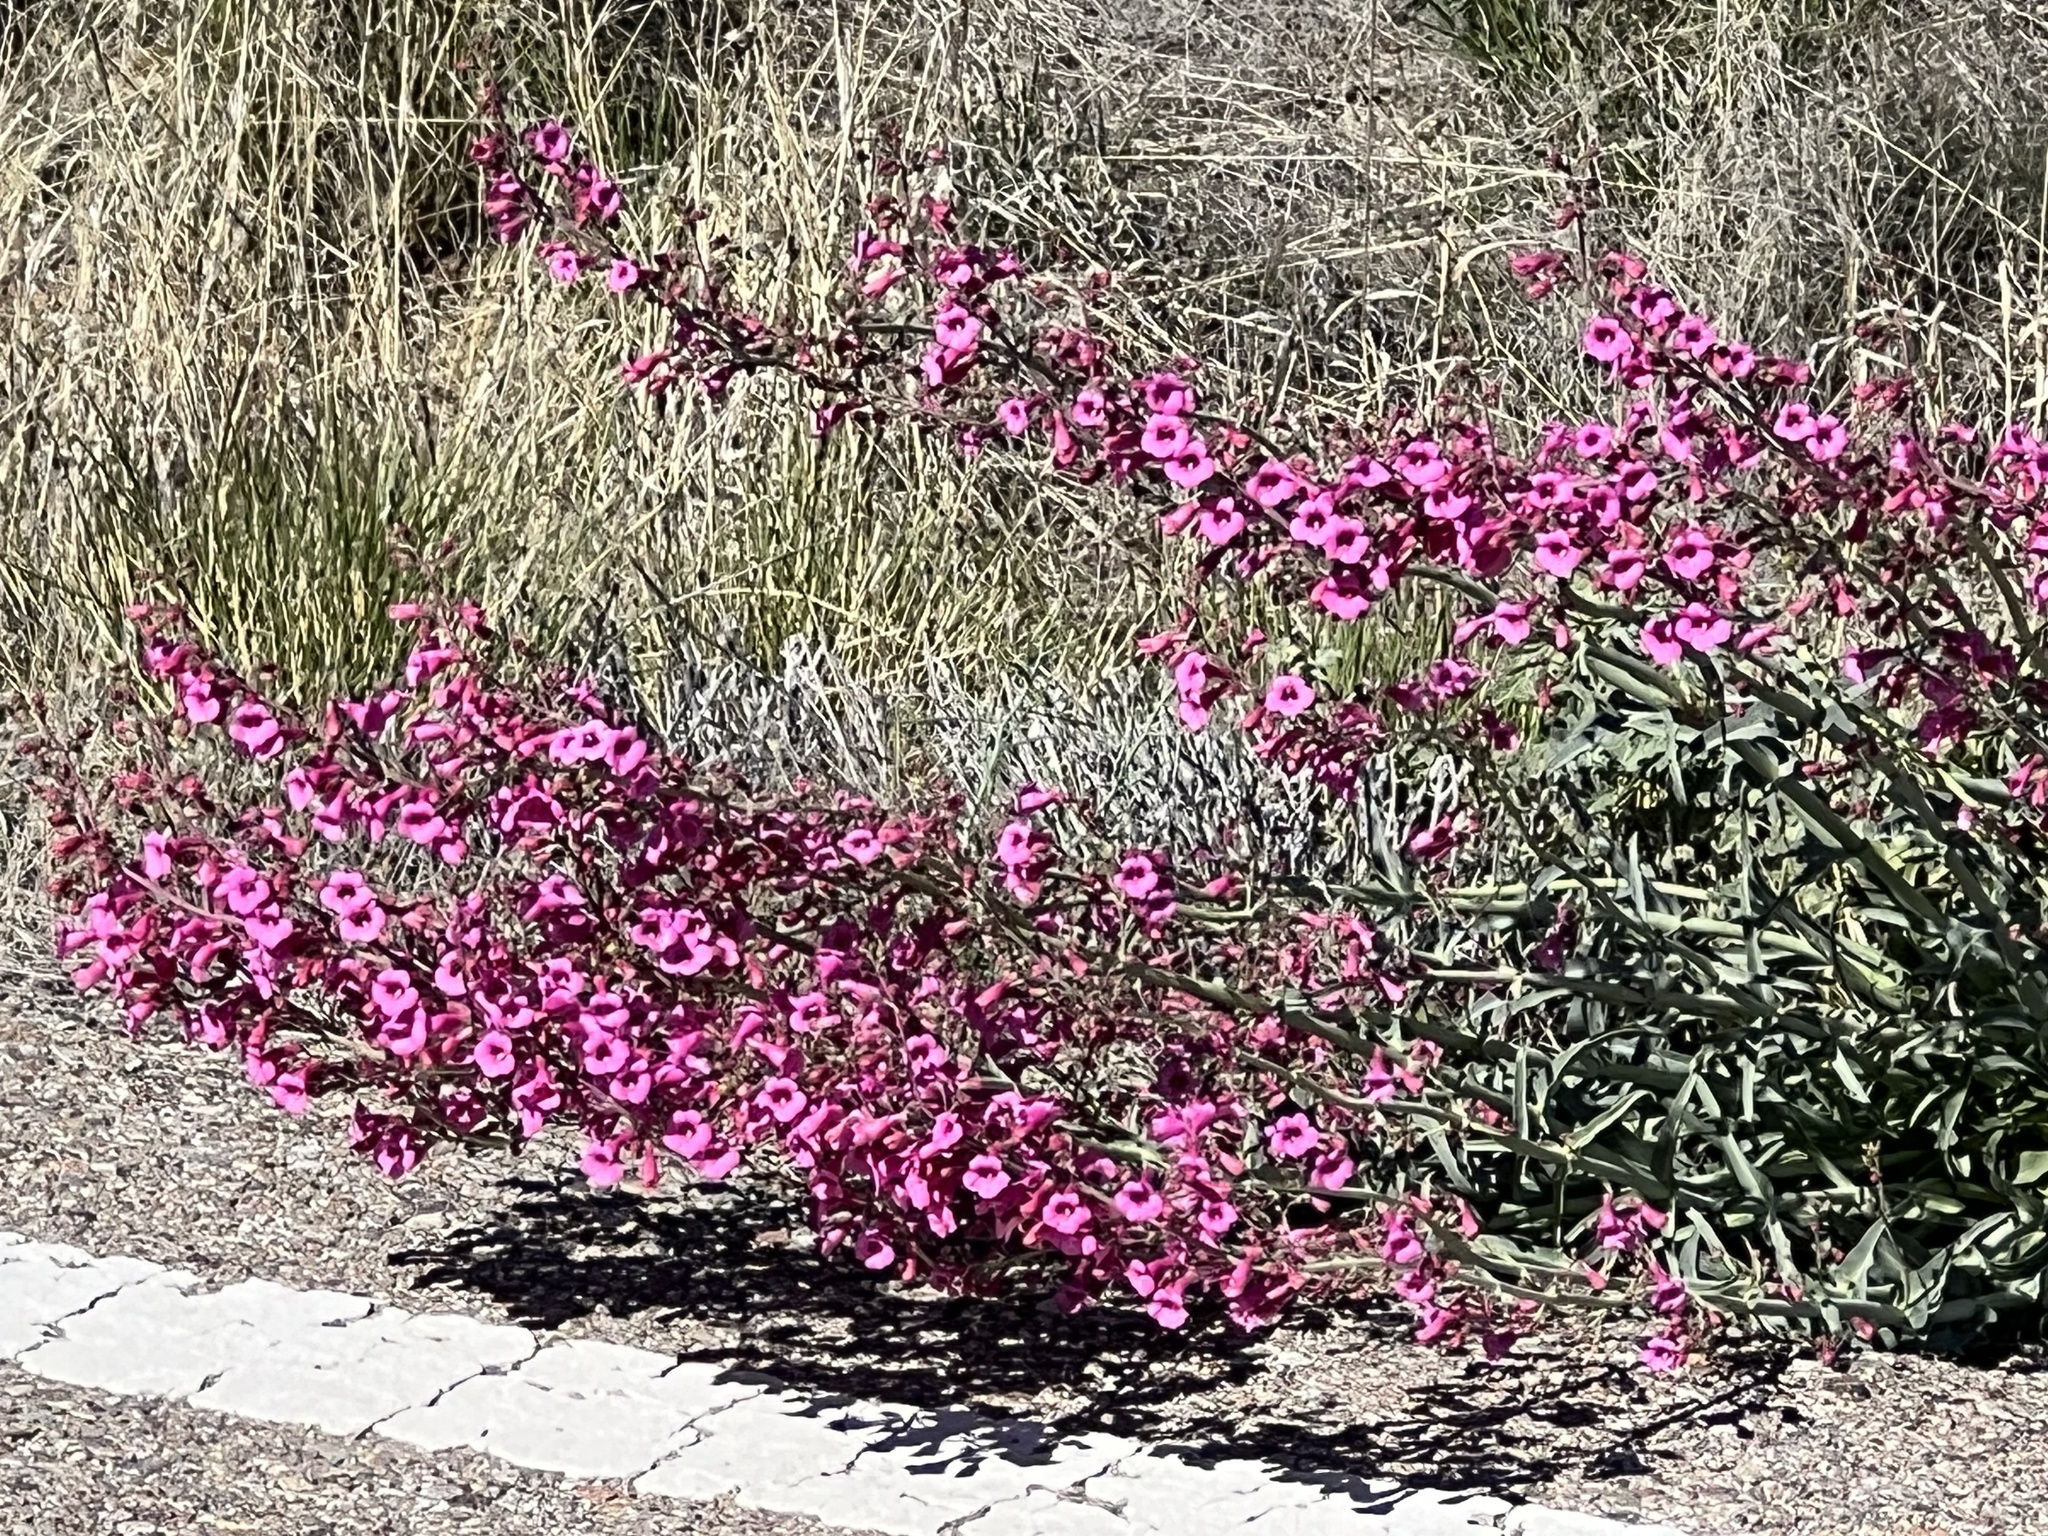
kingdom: Plantae
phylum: Tracheophyta
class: Magnoliopsida
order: Lamiales
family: Plantaginaceae
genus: Penstemon
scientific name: Penstemon parryi
